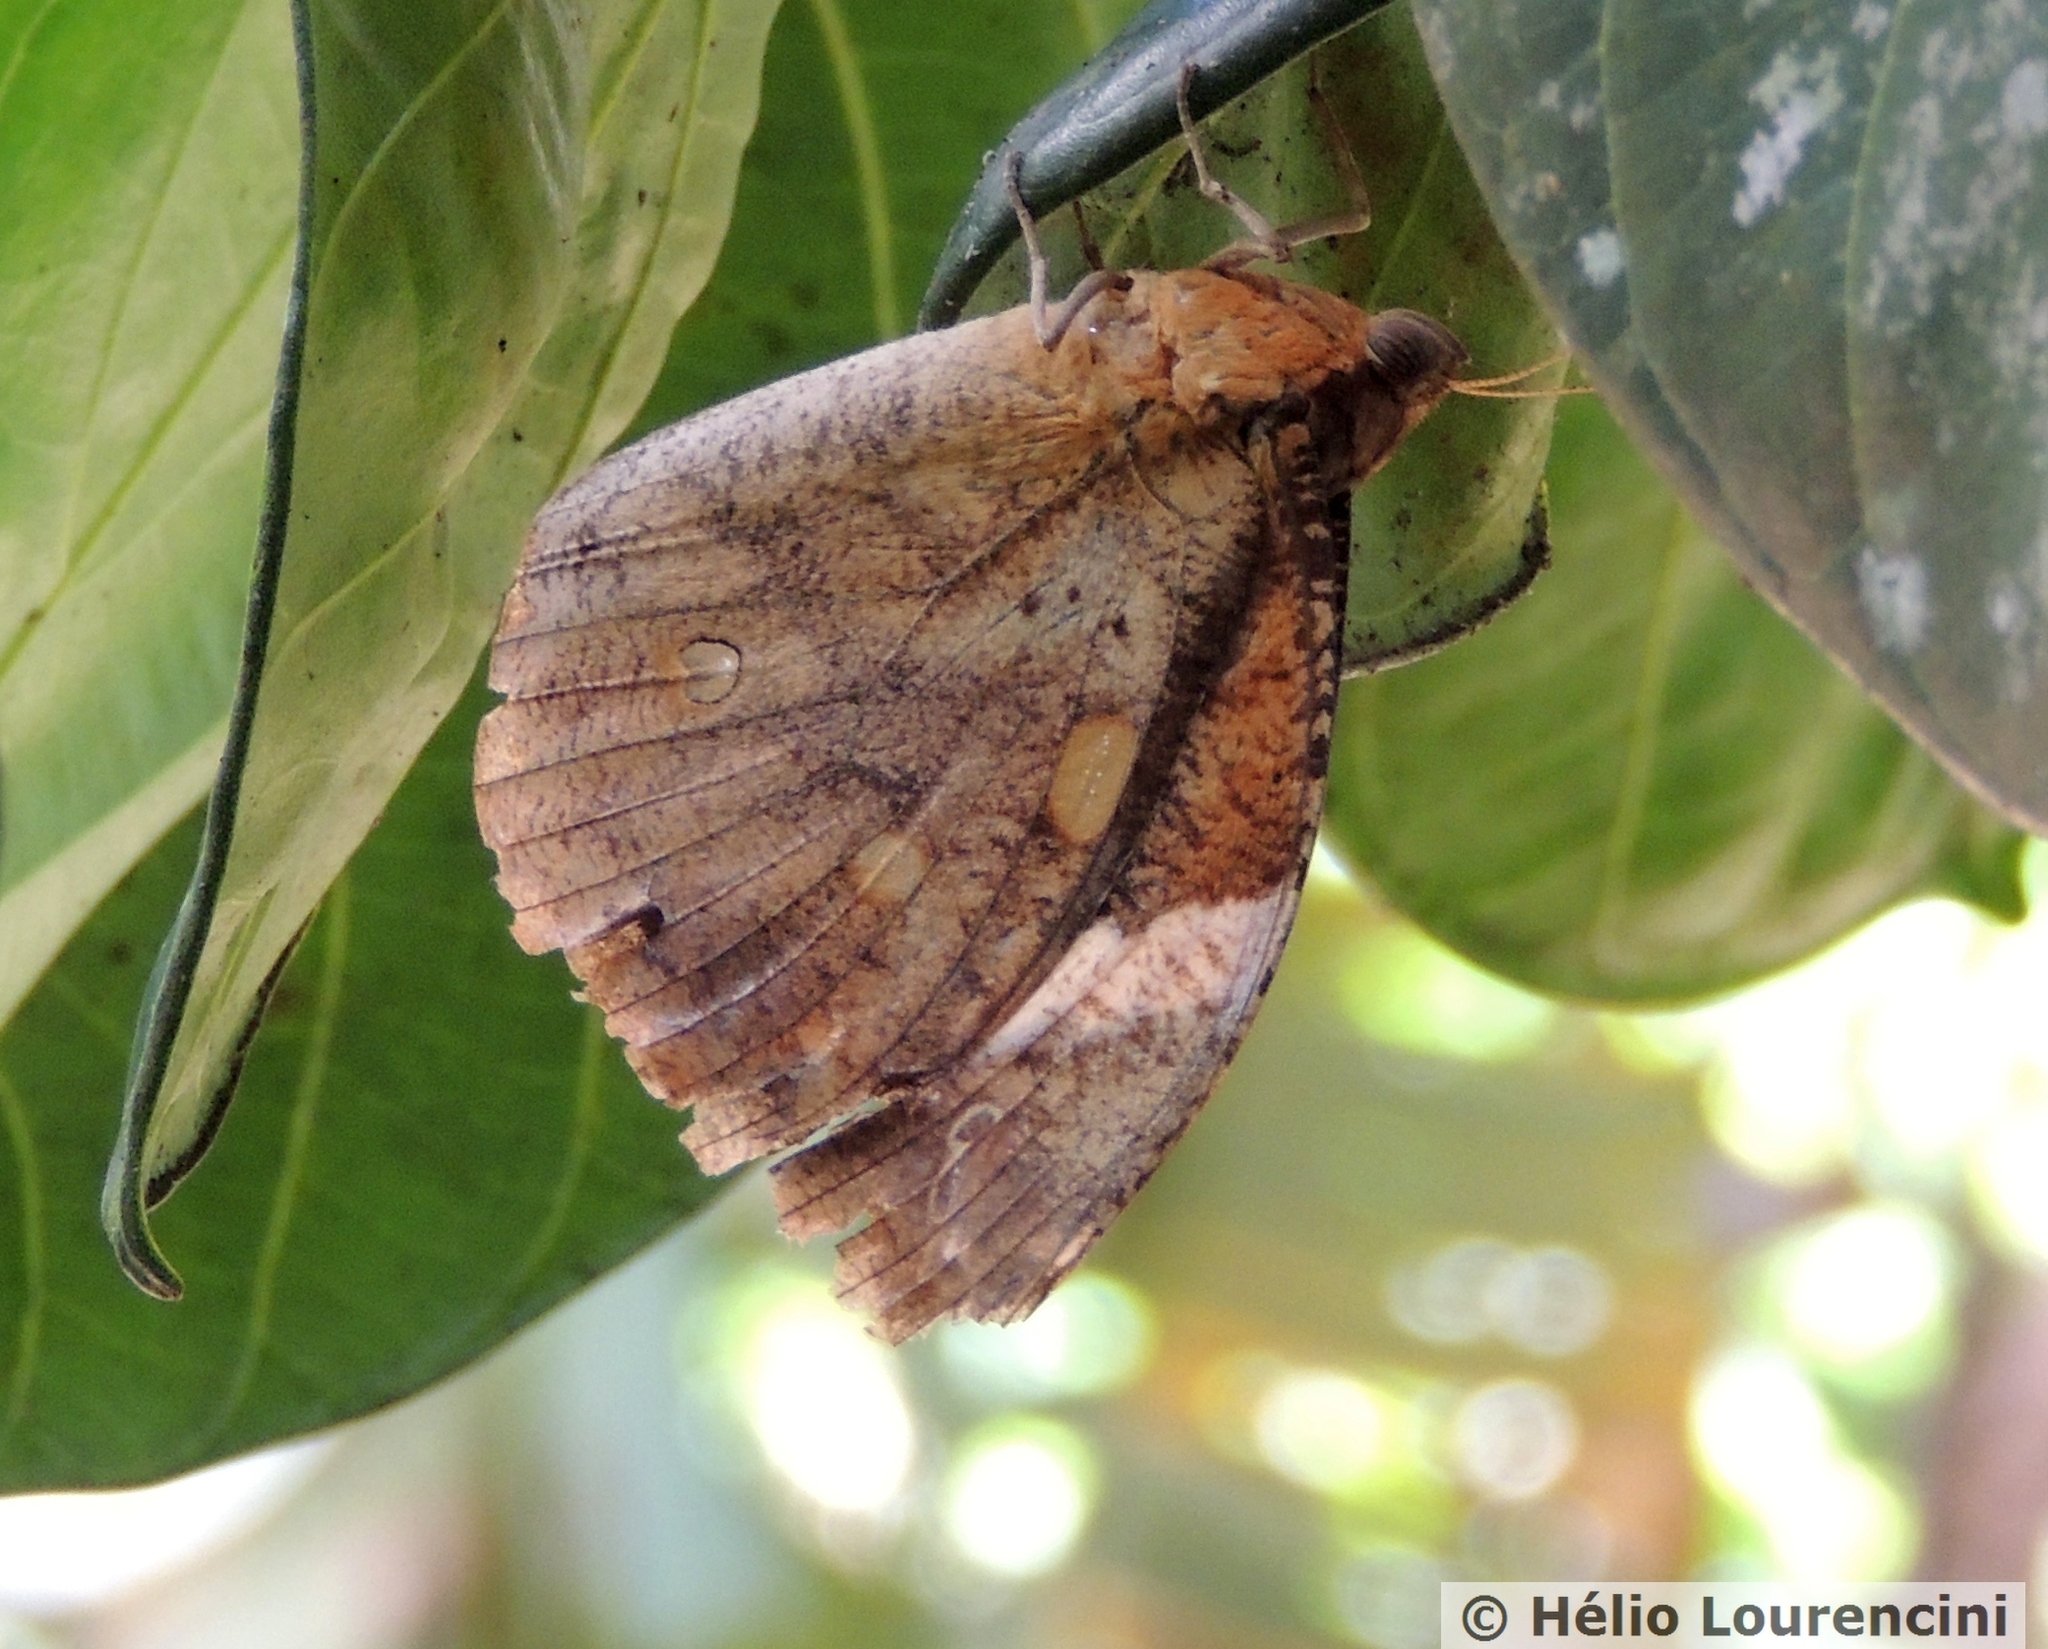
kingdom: Animalia
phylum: Arthropoda
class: Insecta
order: Lepidoptera
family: Nymphalidae
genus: Dynastor
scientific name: Dynastor darius
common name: Daring owl-butterfly
